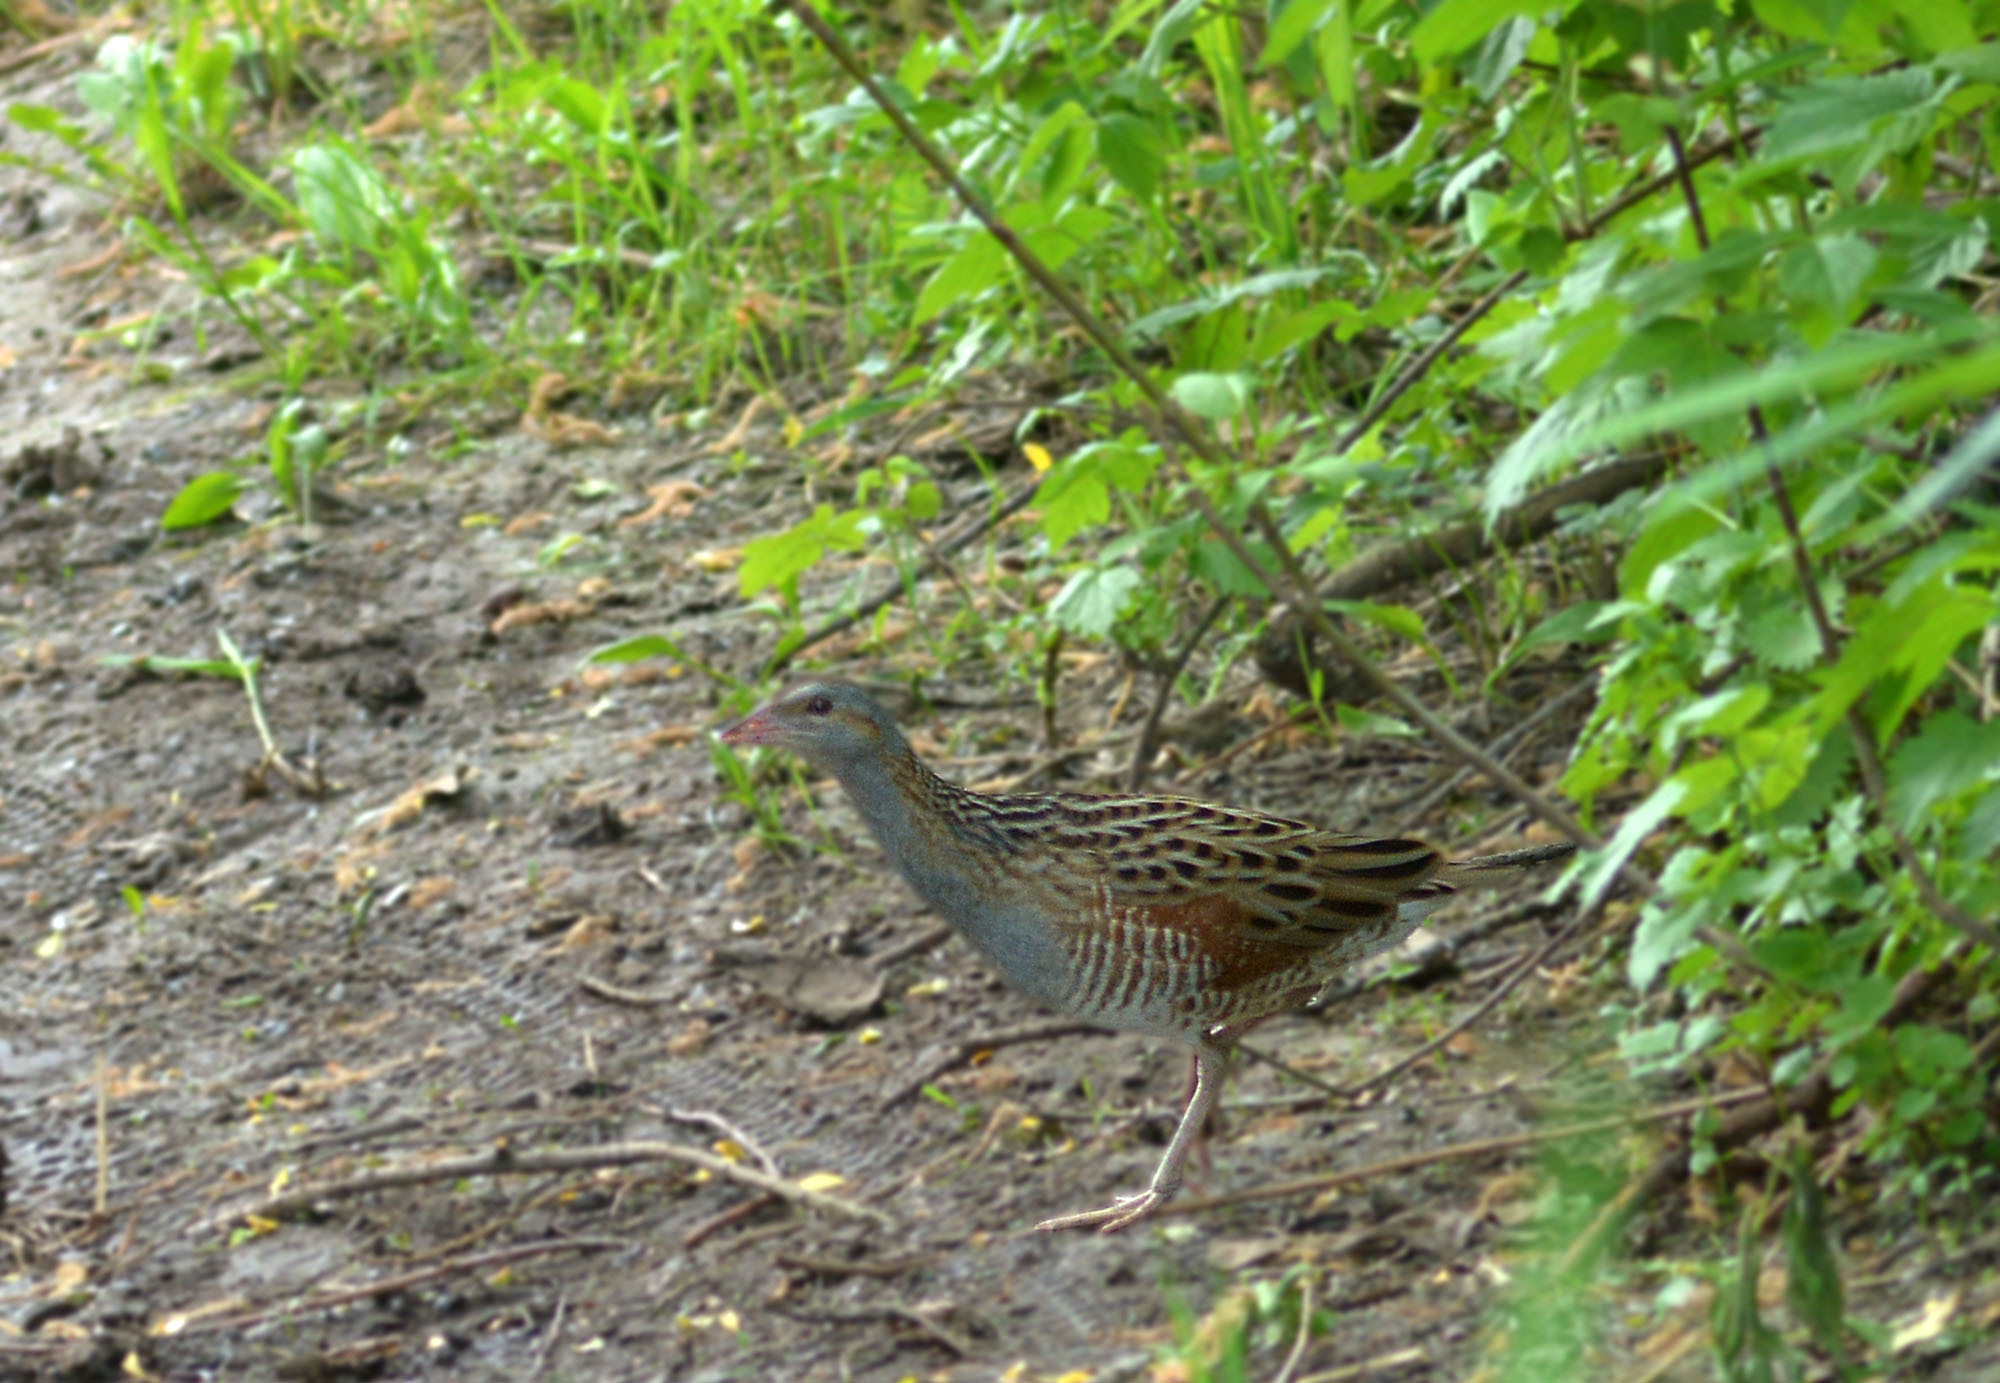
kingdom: Animalia
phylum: Chordata
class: Aves
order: Gruiformes
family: Rallidae
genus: Crex
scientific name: Crex crex
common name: Corn crake
